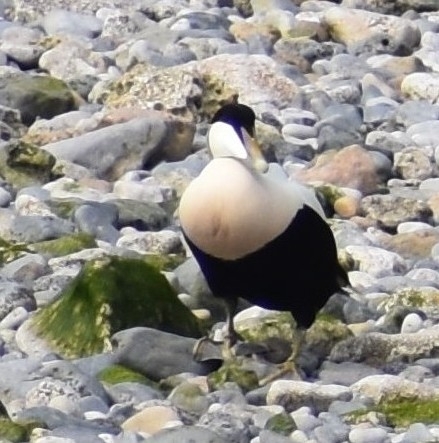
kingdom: Animalia
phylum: Chordata
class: Aves
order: Anseriformes
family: Anatidae
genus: Somateria
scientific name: Somateria mollissima
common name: Common eider
